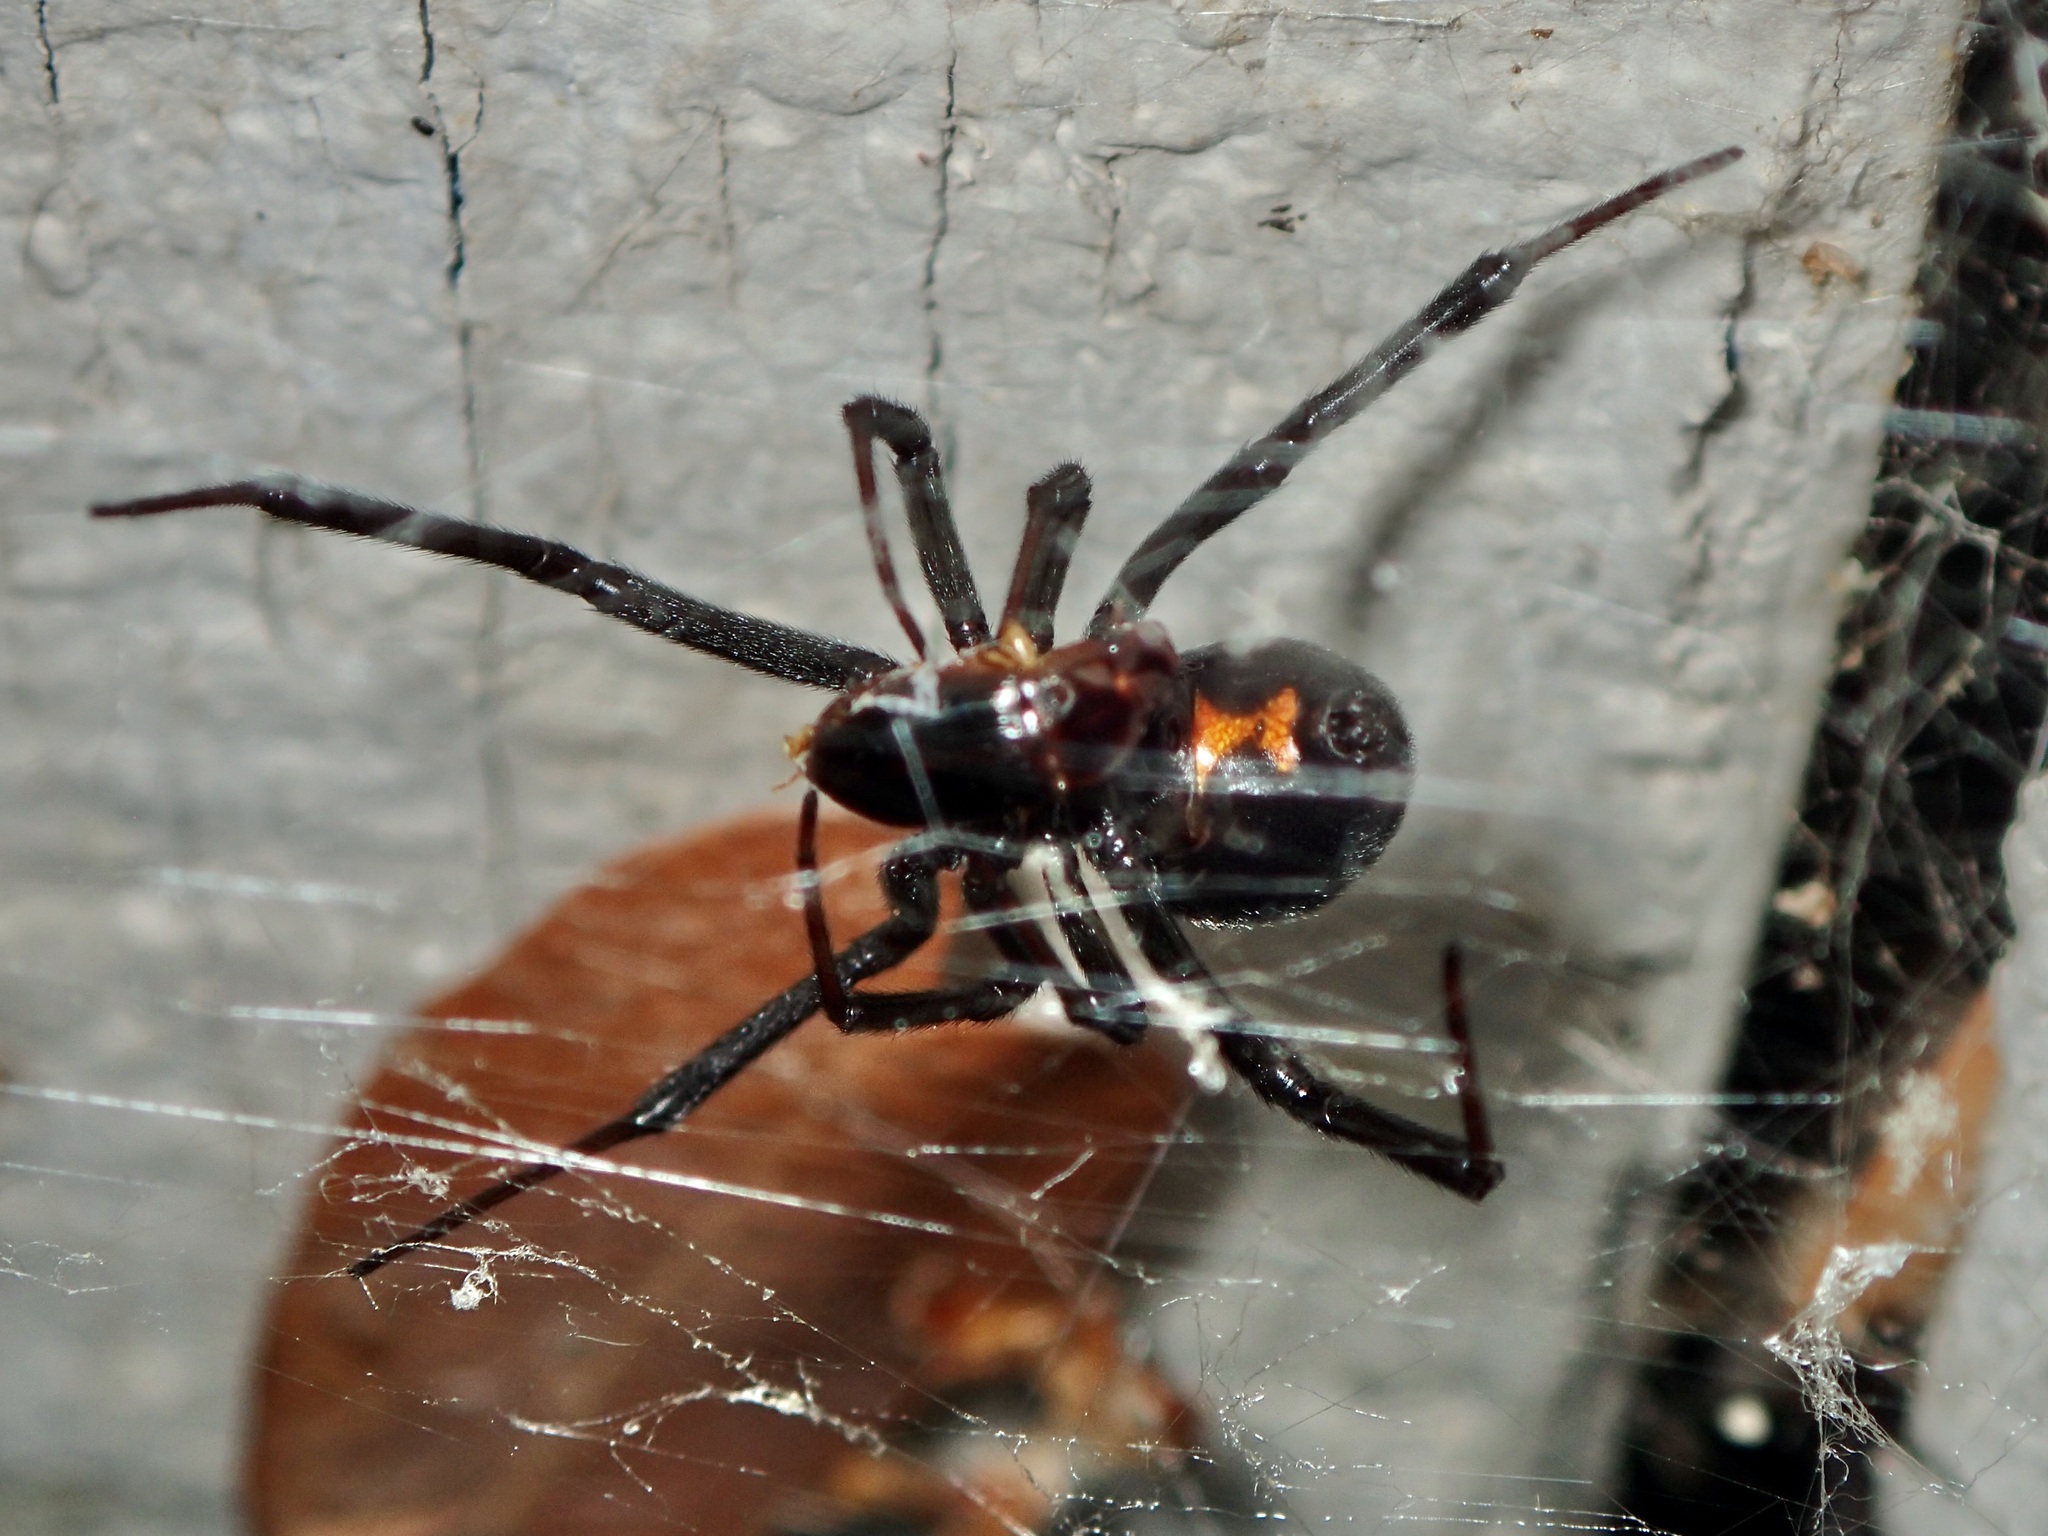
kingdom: Animalia
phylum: Arthropoda
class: Arachnida
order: Araneae
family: Theridiidae
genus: Latrodectus
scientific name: Latrodectus hesperus
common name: Western black widow
